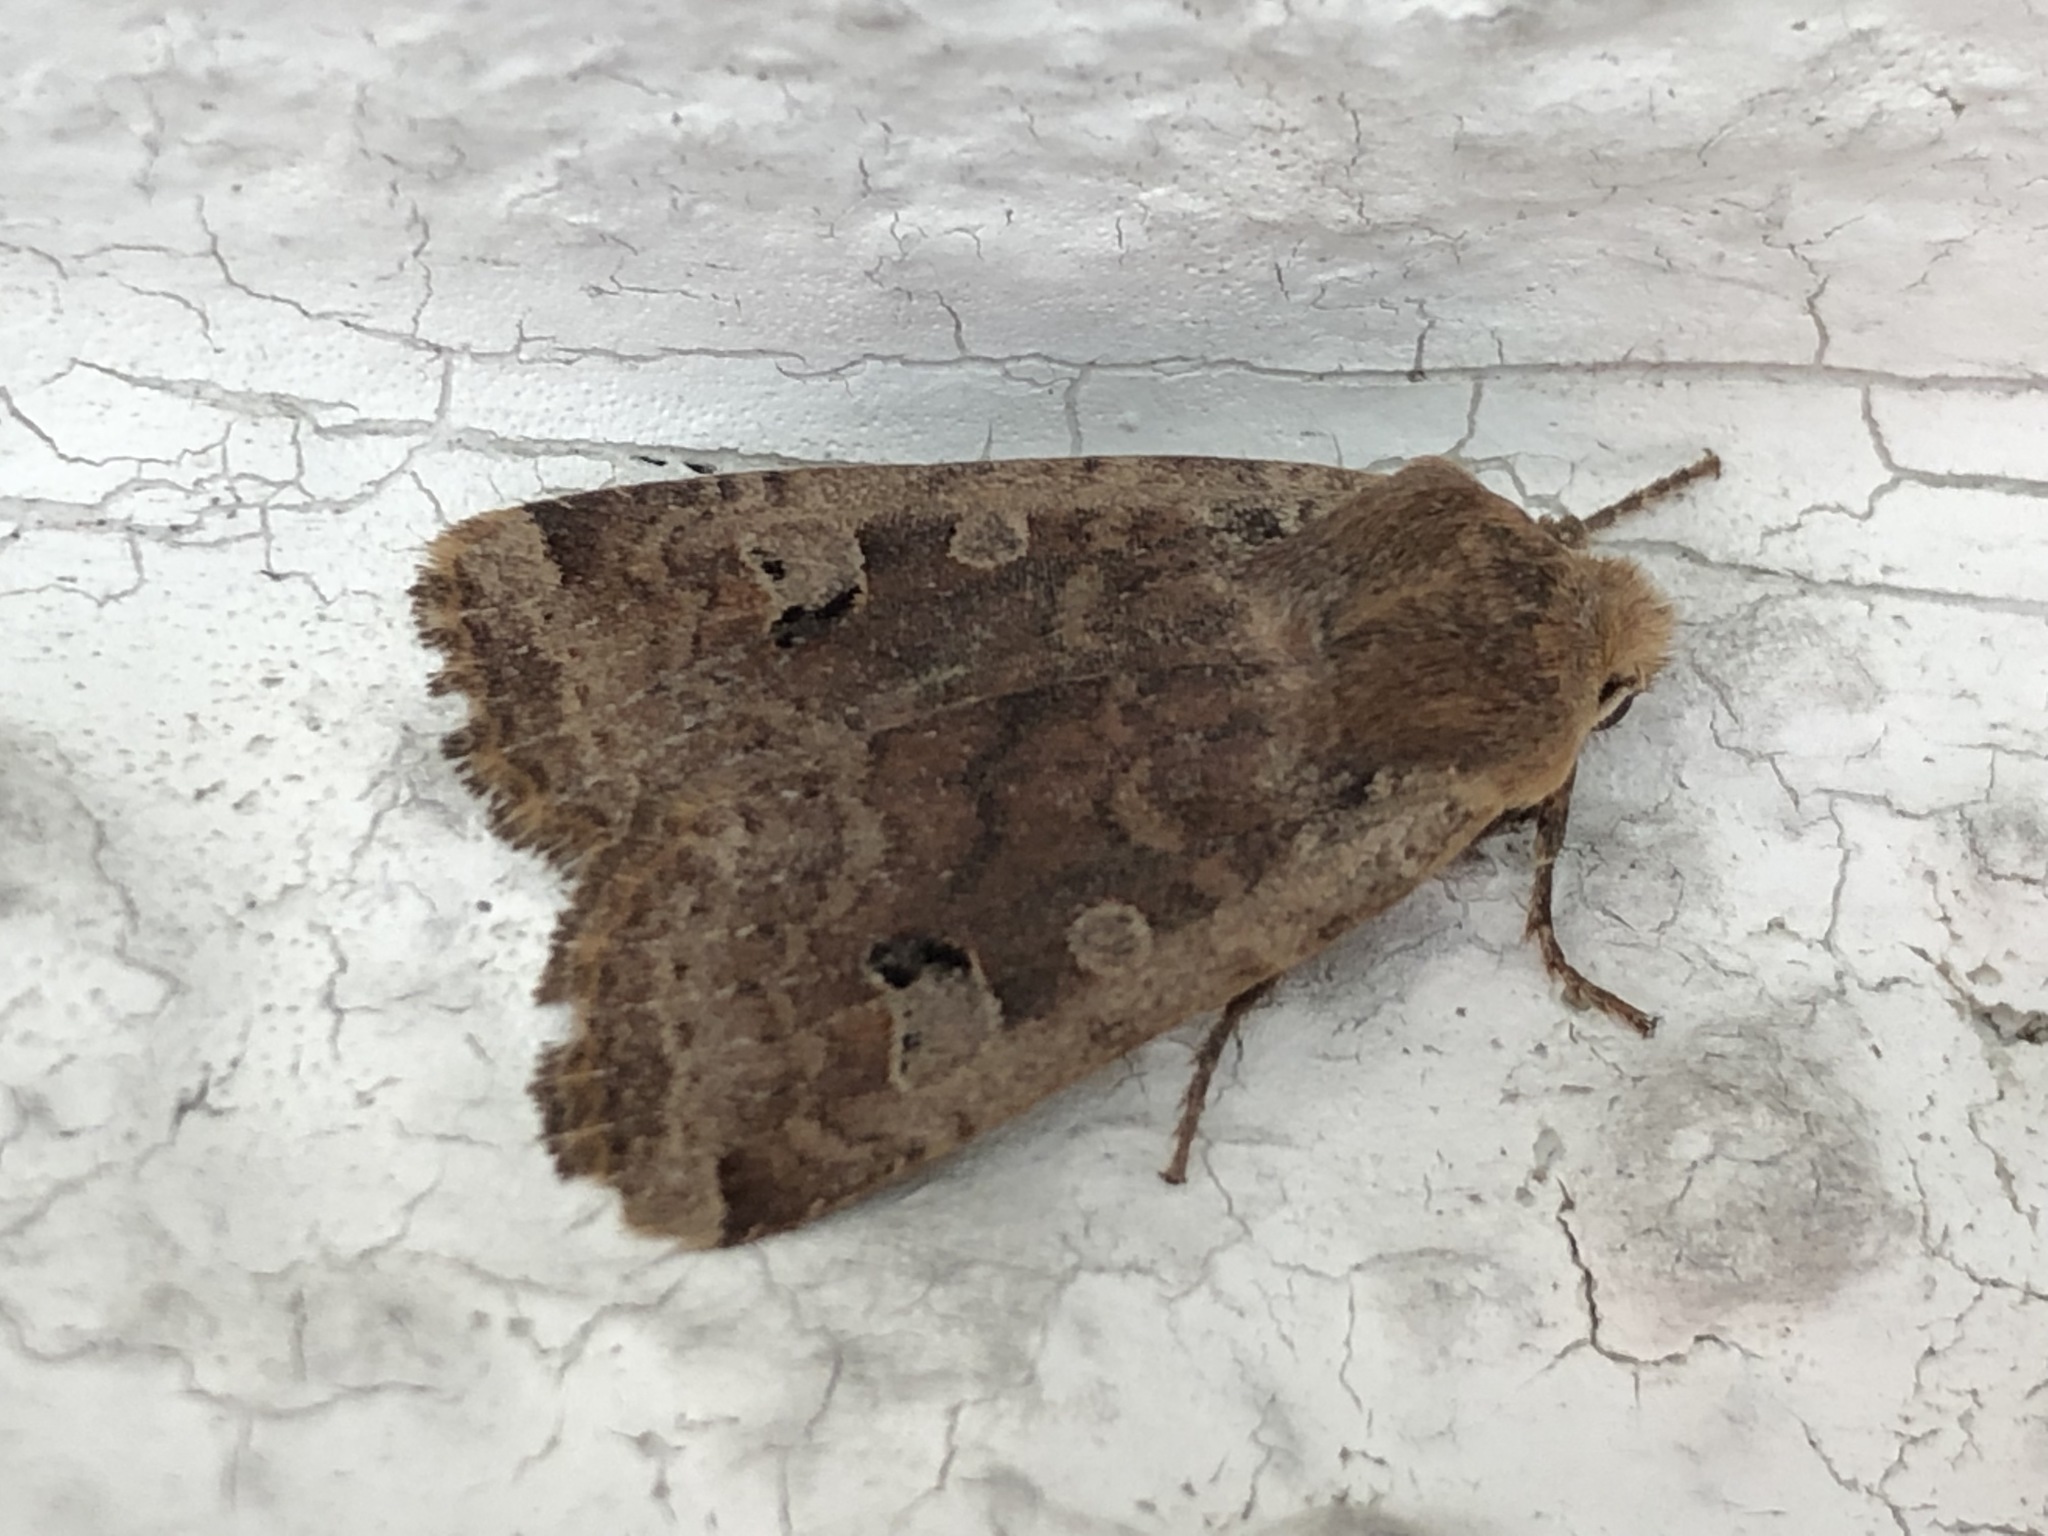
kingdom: Animalia
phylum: Arthropoda
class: Insecta
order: Lepidoptera
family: Noctuidae
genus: Conistra
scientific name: Conistra erythrocephala
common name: Red-headed chestnut
